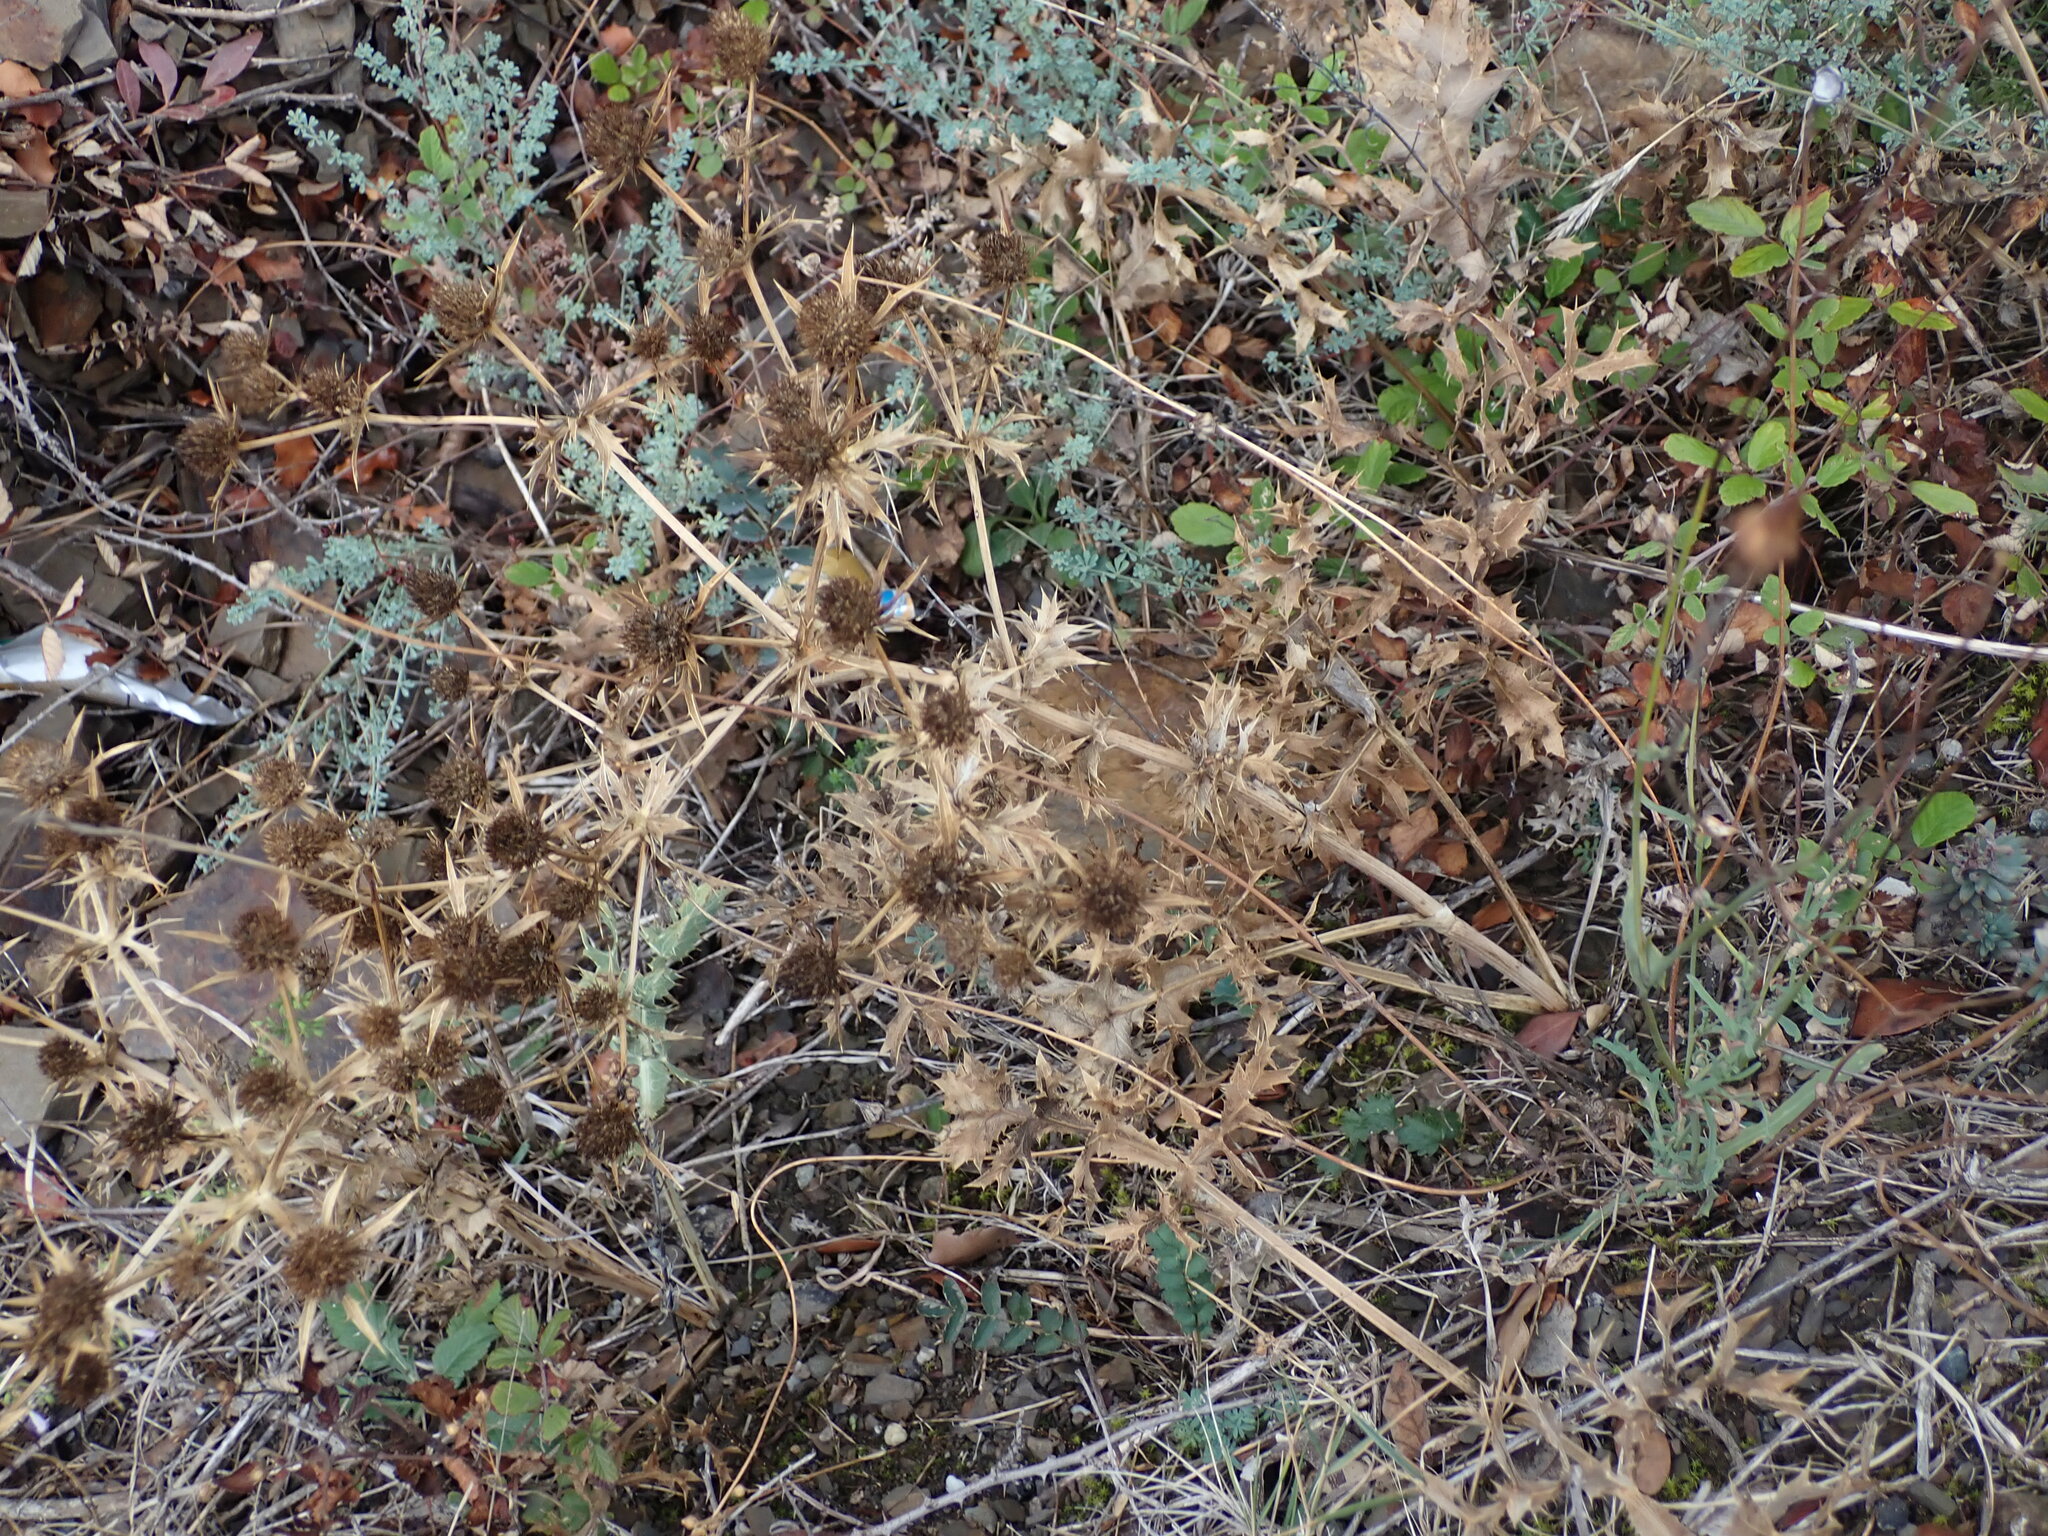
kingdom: Plantae
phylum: Tracheophyta
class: Magnoliopsida
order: Apiales
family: Apiaceae
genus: Eryngium
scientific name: Eryngium campestre
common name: Field eryngo
